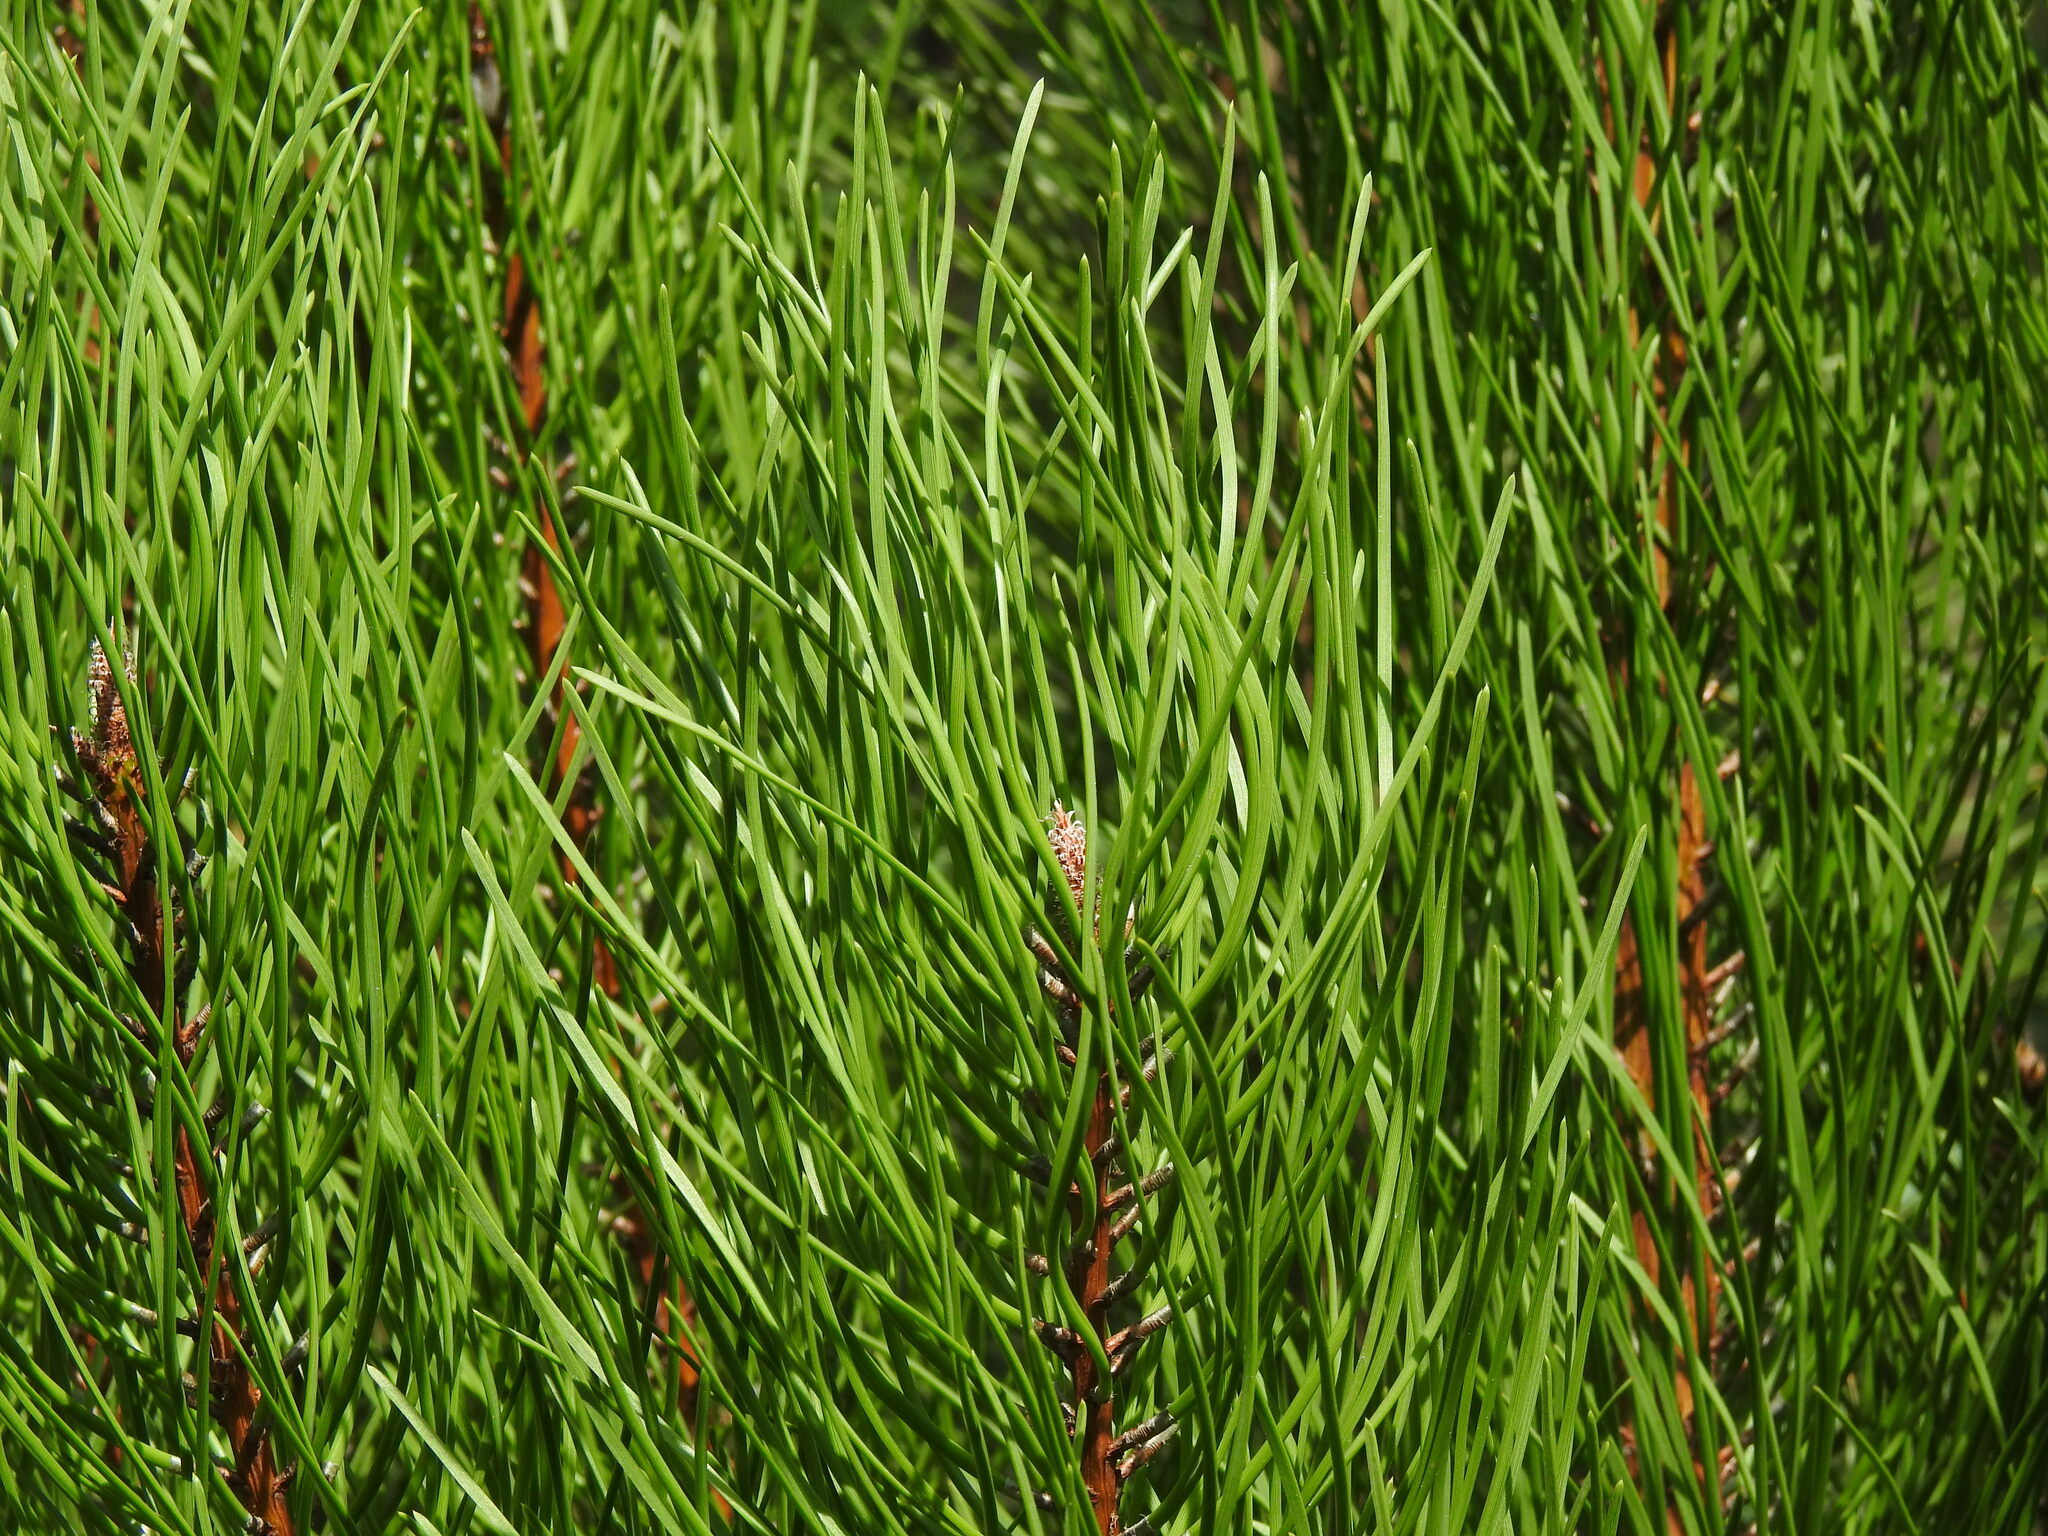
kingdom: Plantae
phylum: Tracheophyta
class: Pinopsida
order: Pinales
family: Pinaceae
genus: Pinus
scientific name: Pinus pinaster
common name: Maritime pine
